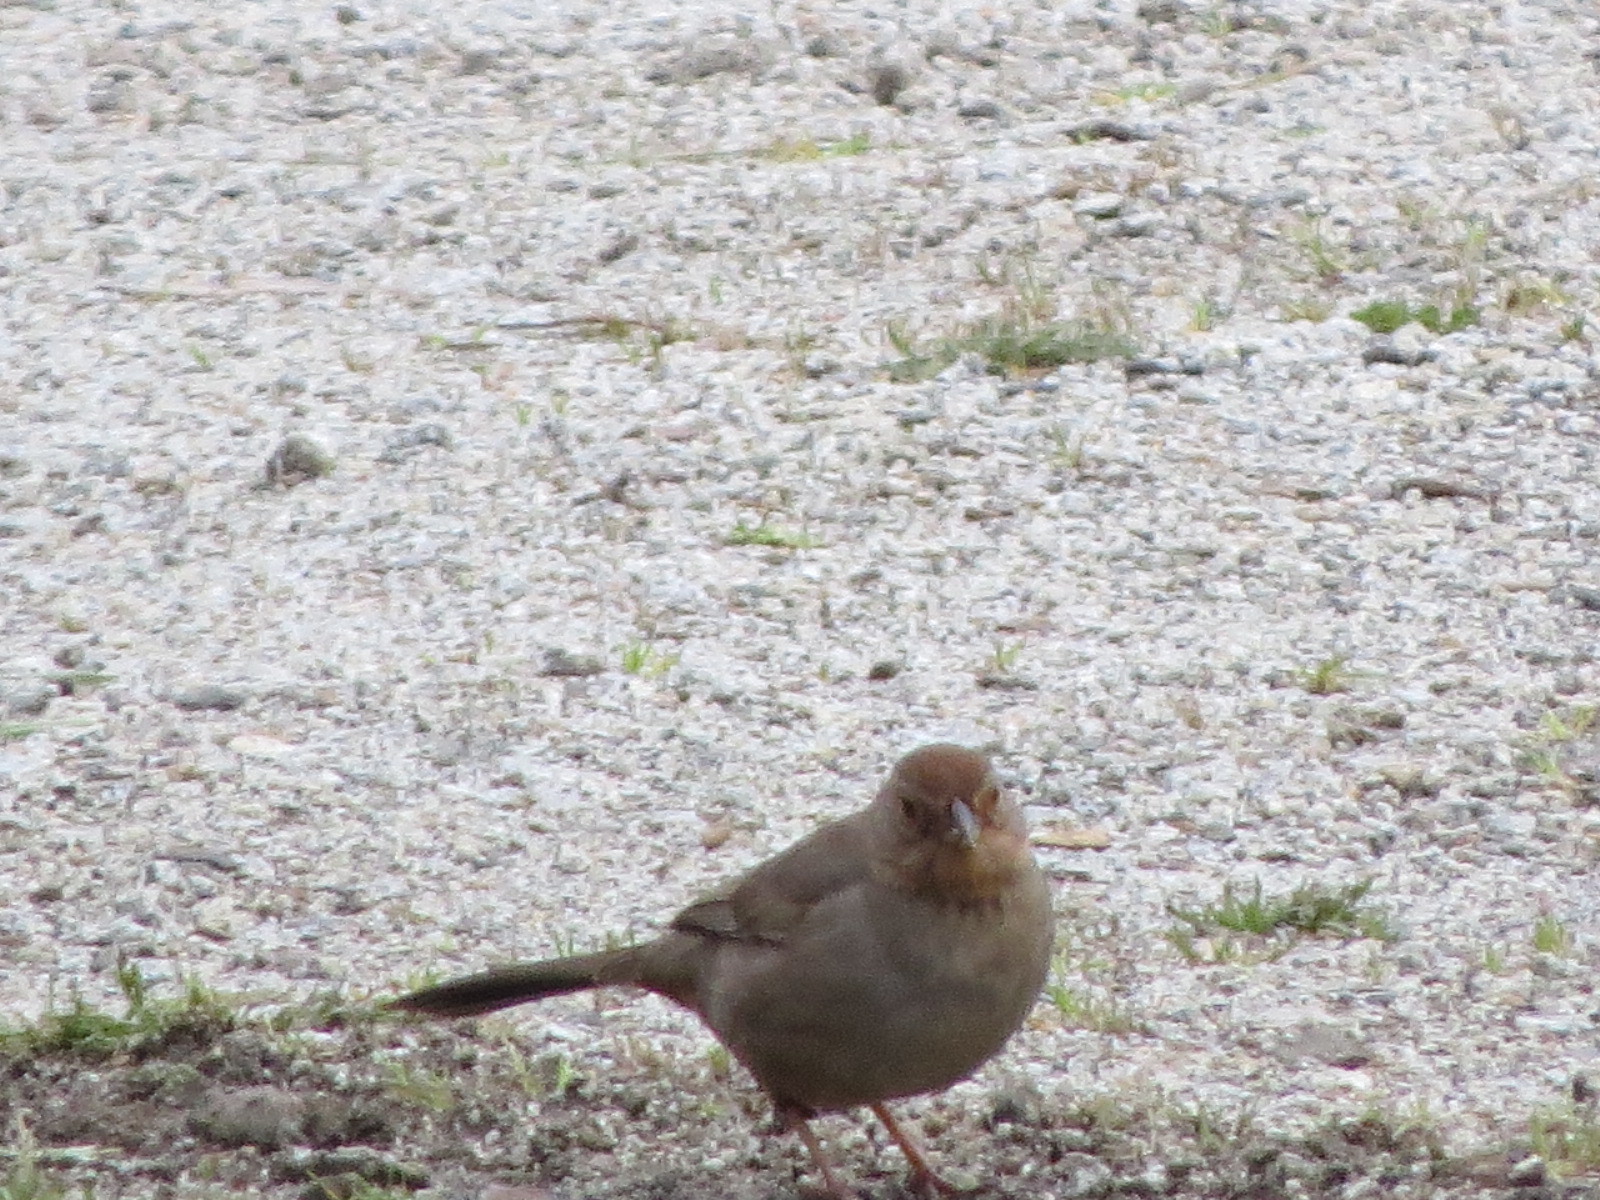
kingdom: Animalia
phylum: Chordata
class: Aves
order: Passeriformes
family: Passerellidae
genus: Melozone
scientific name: Melozone crissalis
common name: California towhee
